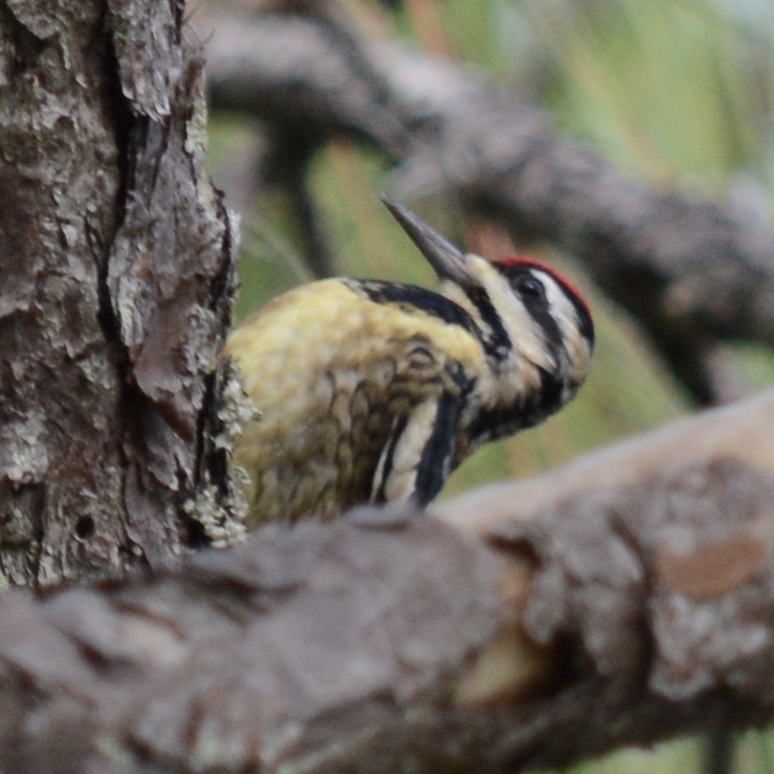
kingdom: Animalia
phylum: Chordata
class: Aves
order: Piciformes
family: Picidae
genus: Sphyrapicus
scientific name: Sphyrapicus varius
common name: Yellow-bellied sapsucker
